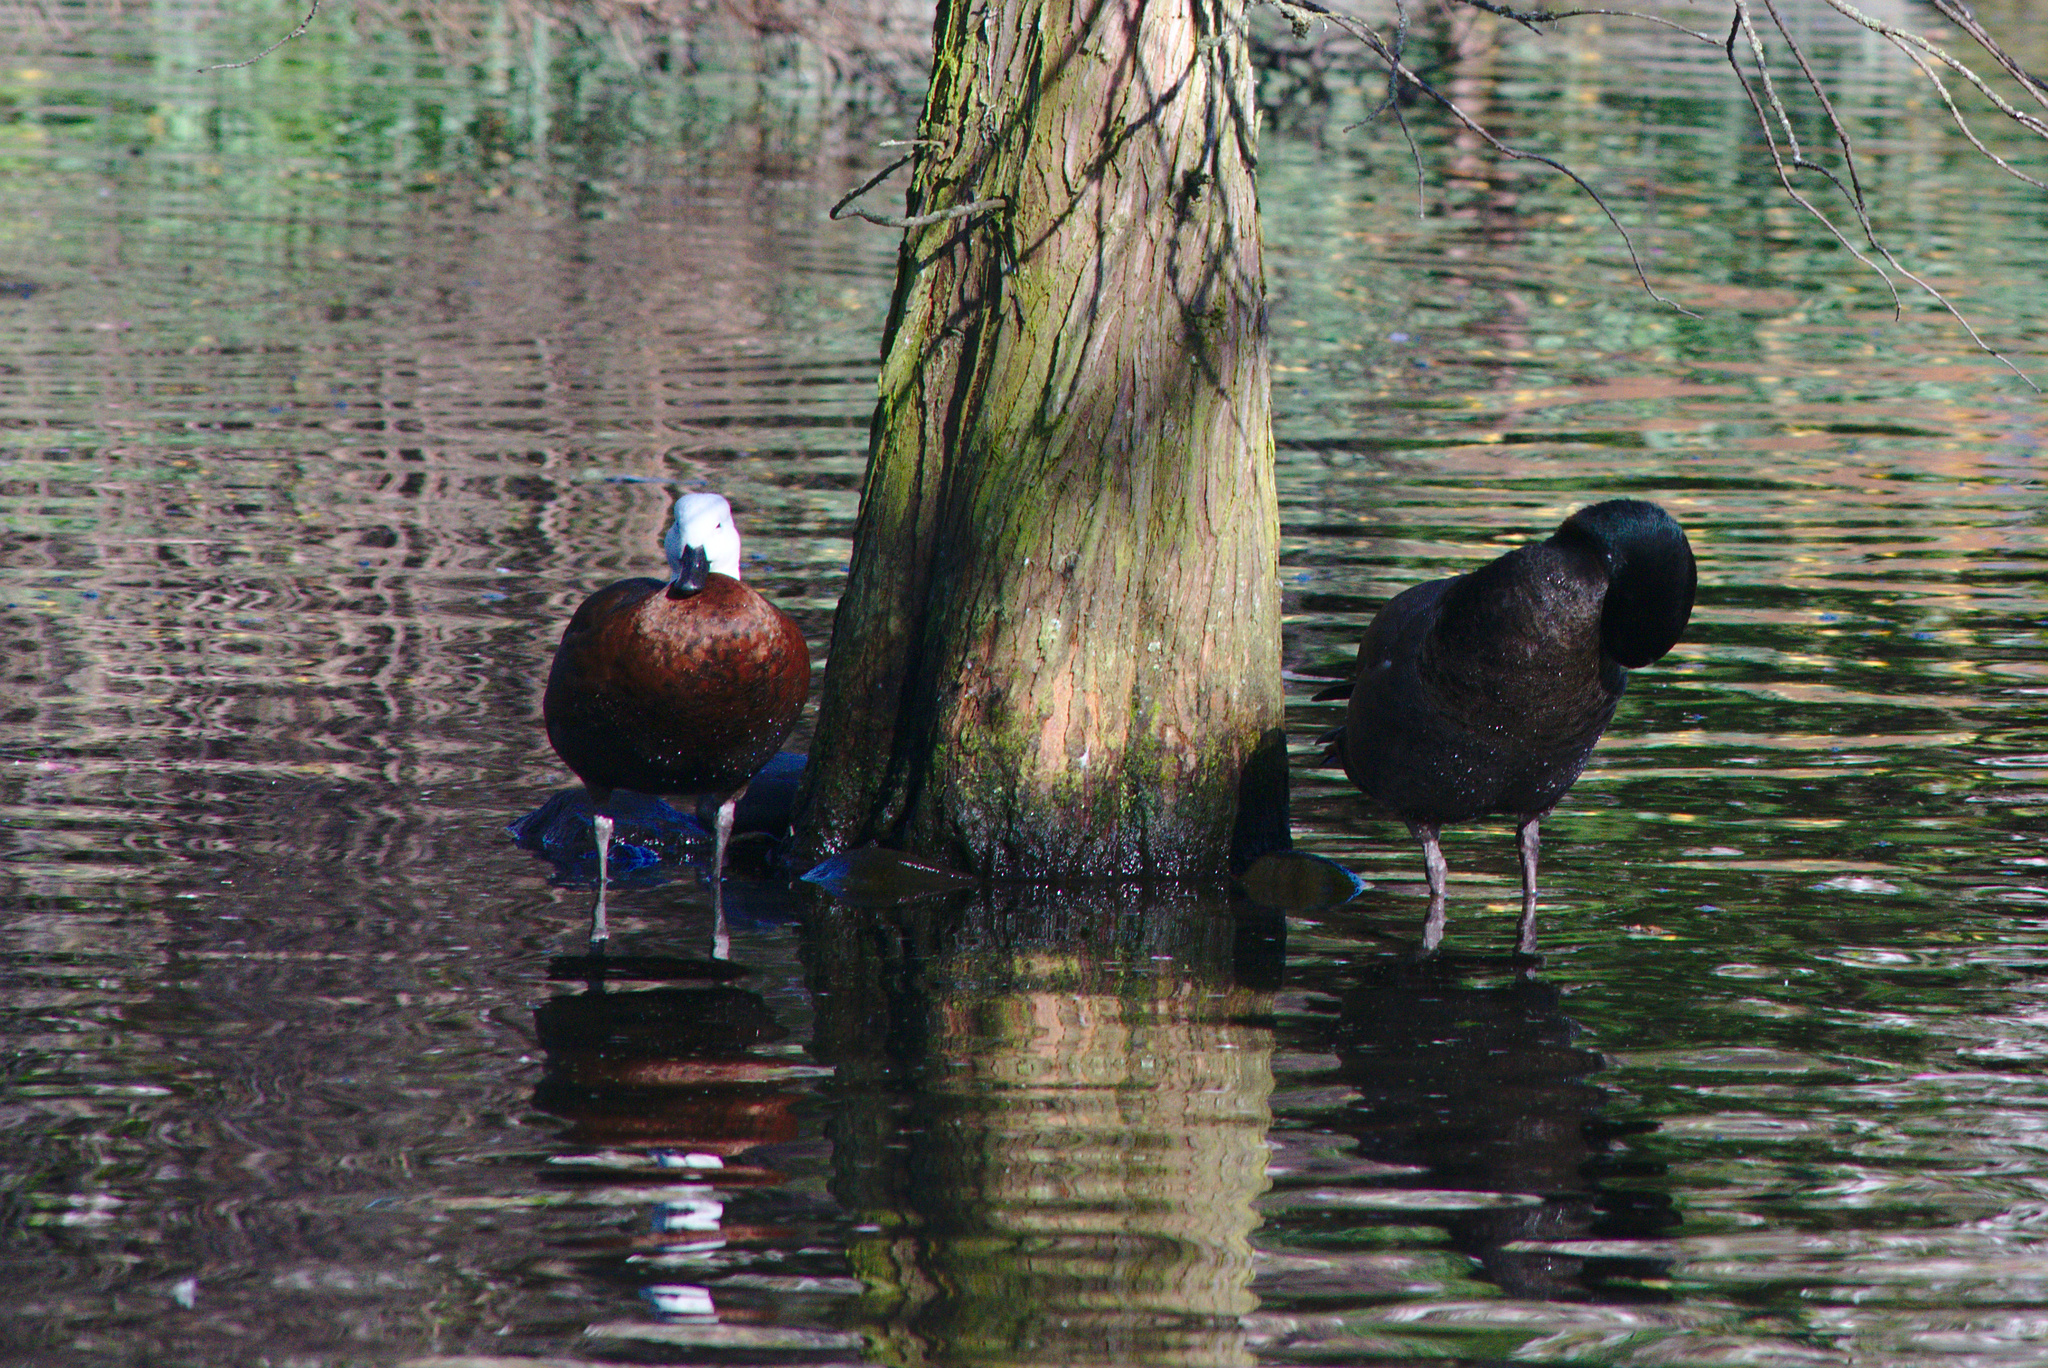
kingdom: Animalia
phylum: Chordata
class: Aves
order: Anseriformes
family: Anatidae
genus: Tadorna
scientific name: Tadorna variegata
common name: Paradise shelduck
